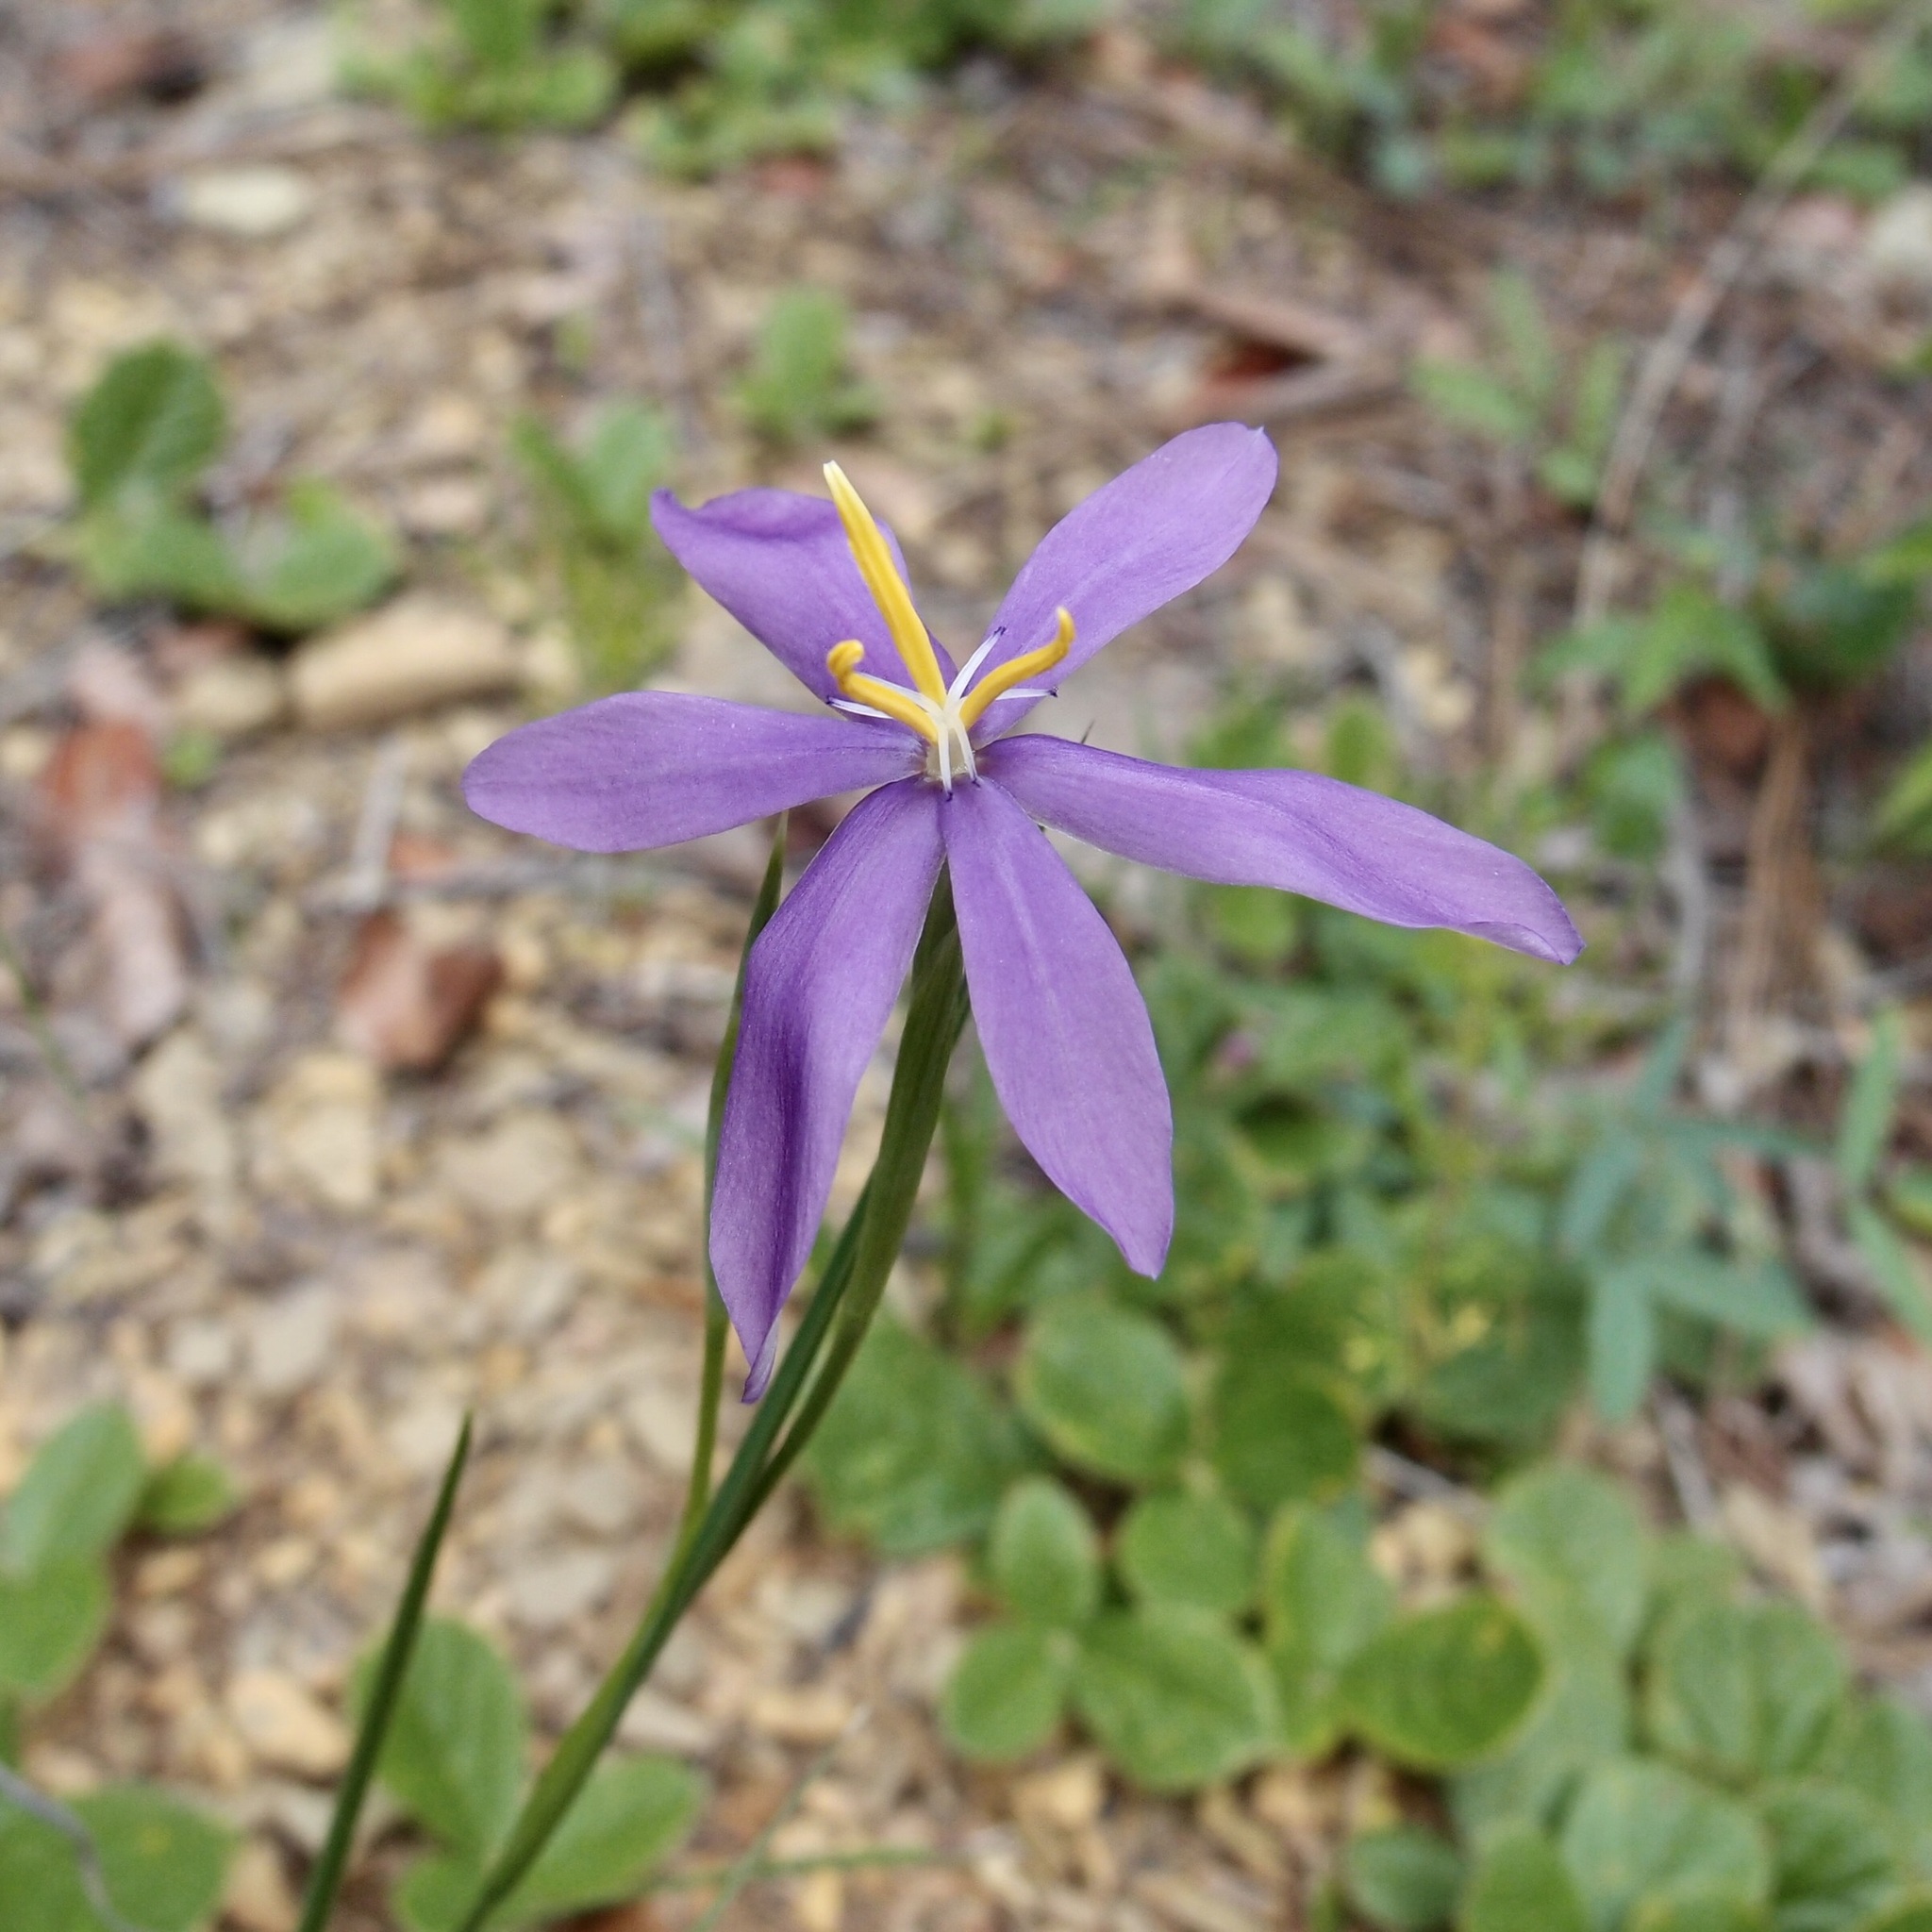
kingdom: Plantae
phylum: Tracheophyta
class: Liliopsida
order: Asparagales
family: Iridaceae
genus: Nemastylis
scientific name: Nemastylis tenuis
